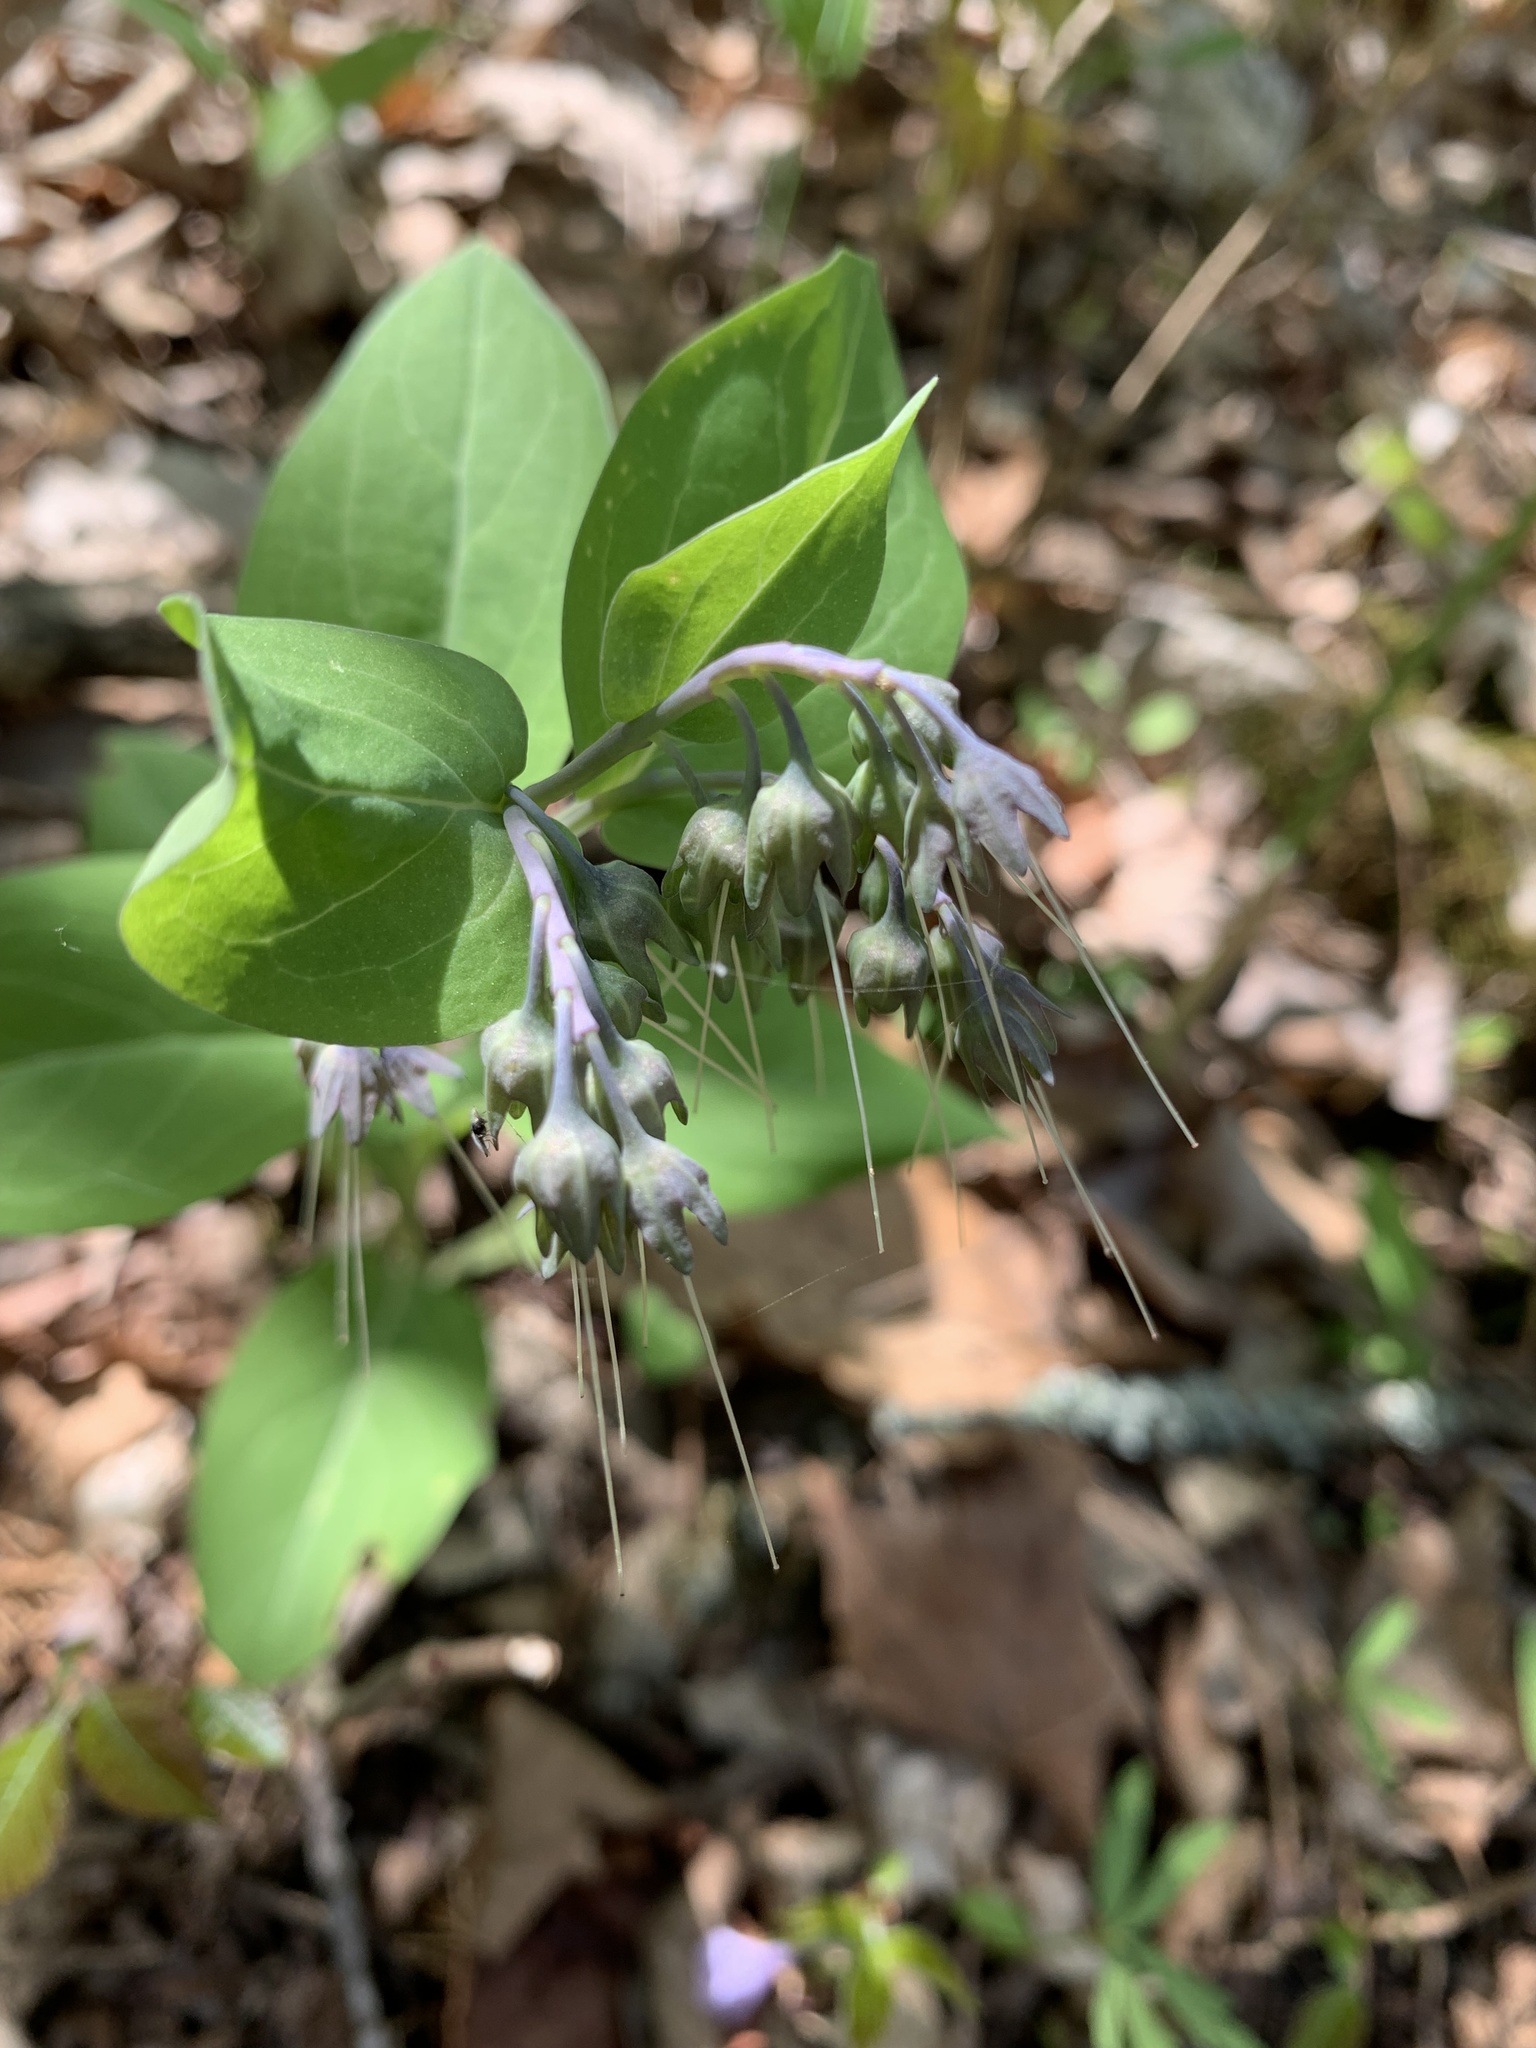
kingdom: Plantae
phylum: Tracheophyta
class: Magnoliopsida
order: Boraginales
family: Boraginaceae
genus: Mertensia
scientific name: Mertensia virginica
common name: Virginia bluebells
